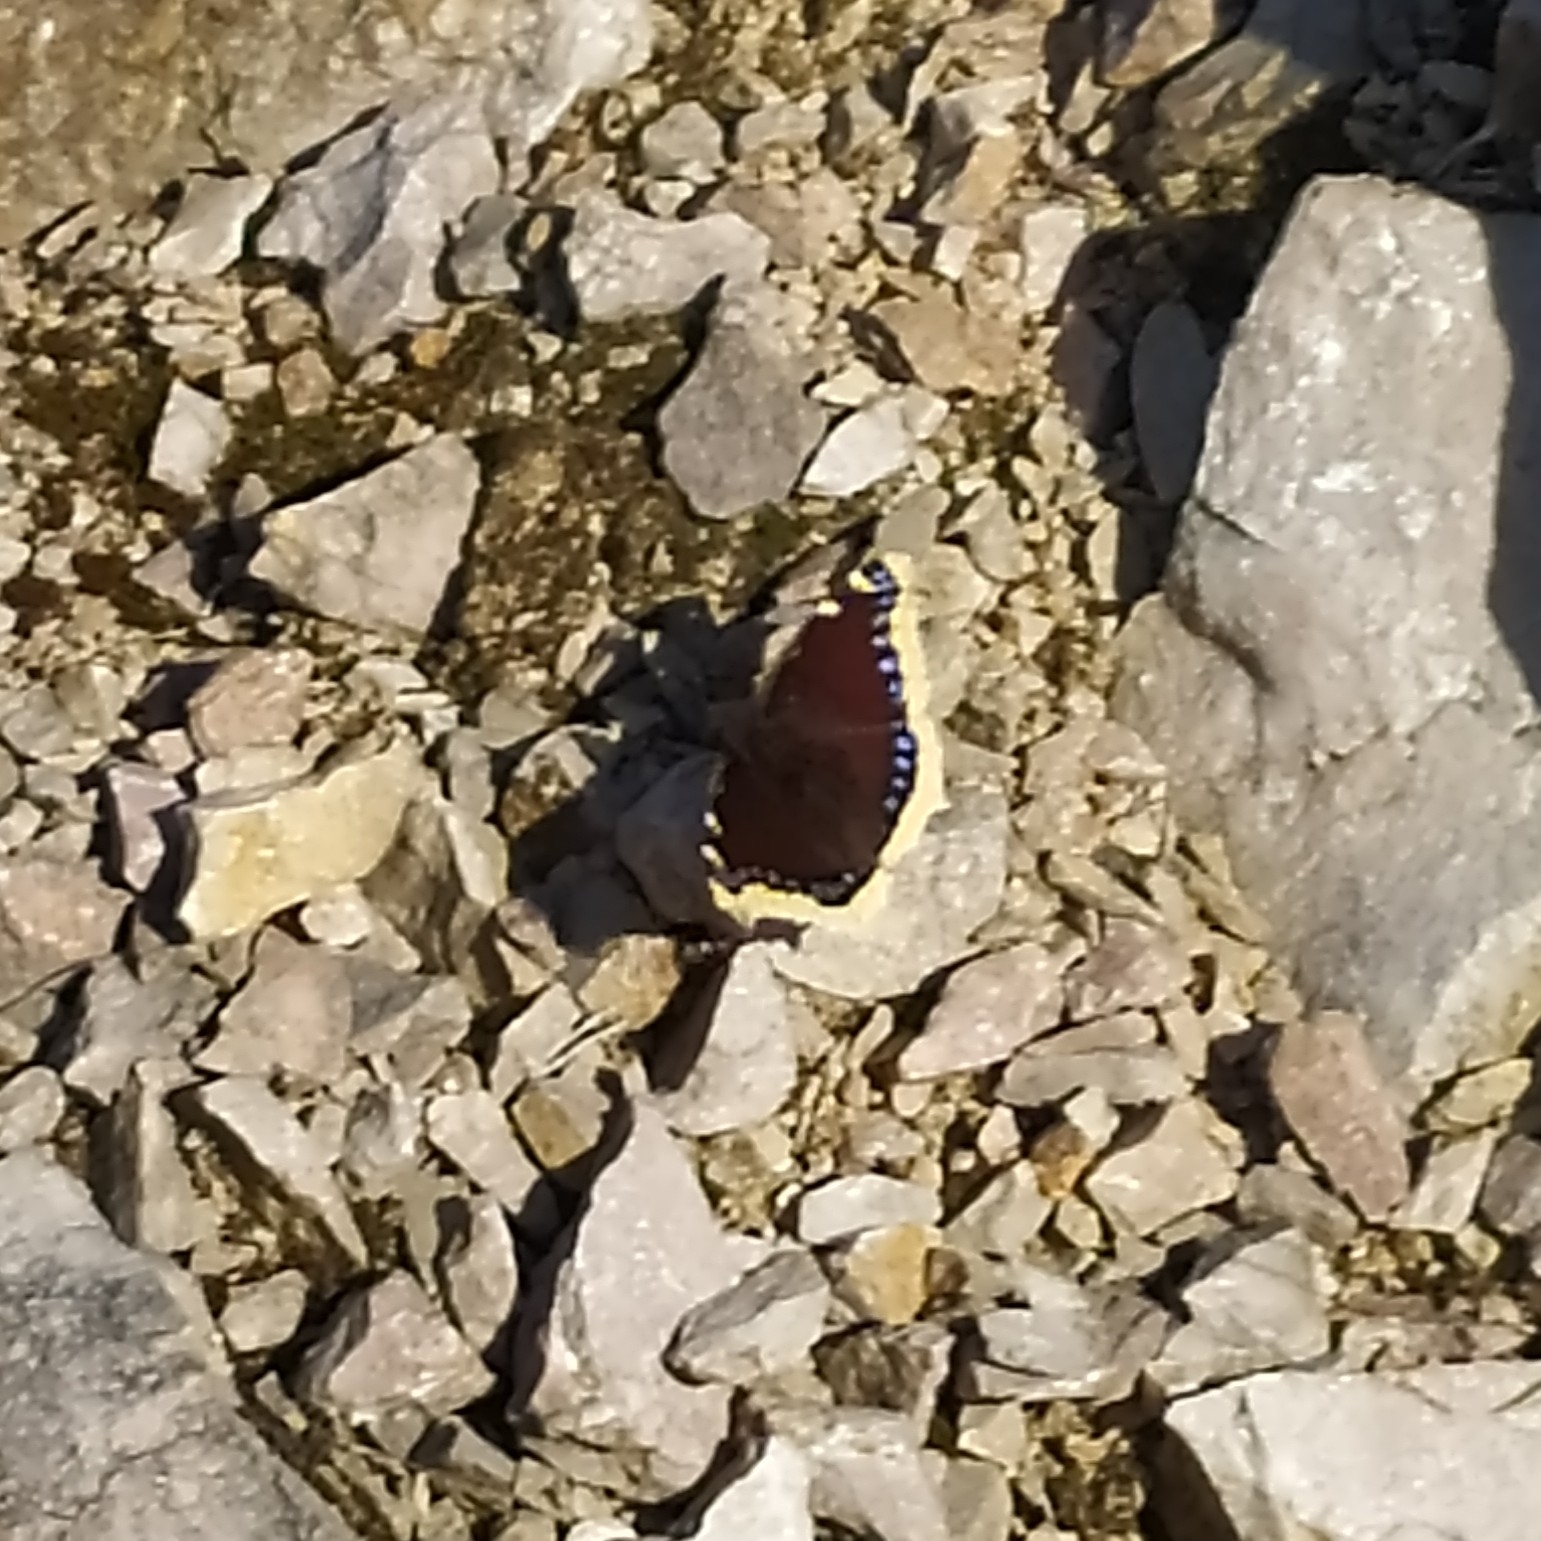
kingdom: Animalia
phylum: Arthropoda
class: Insecta
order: Lepidoptera
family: Nymphalidae
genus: Nymphalis
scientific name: Nymphalis antiopa
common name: Camberwell beauty
